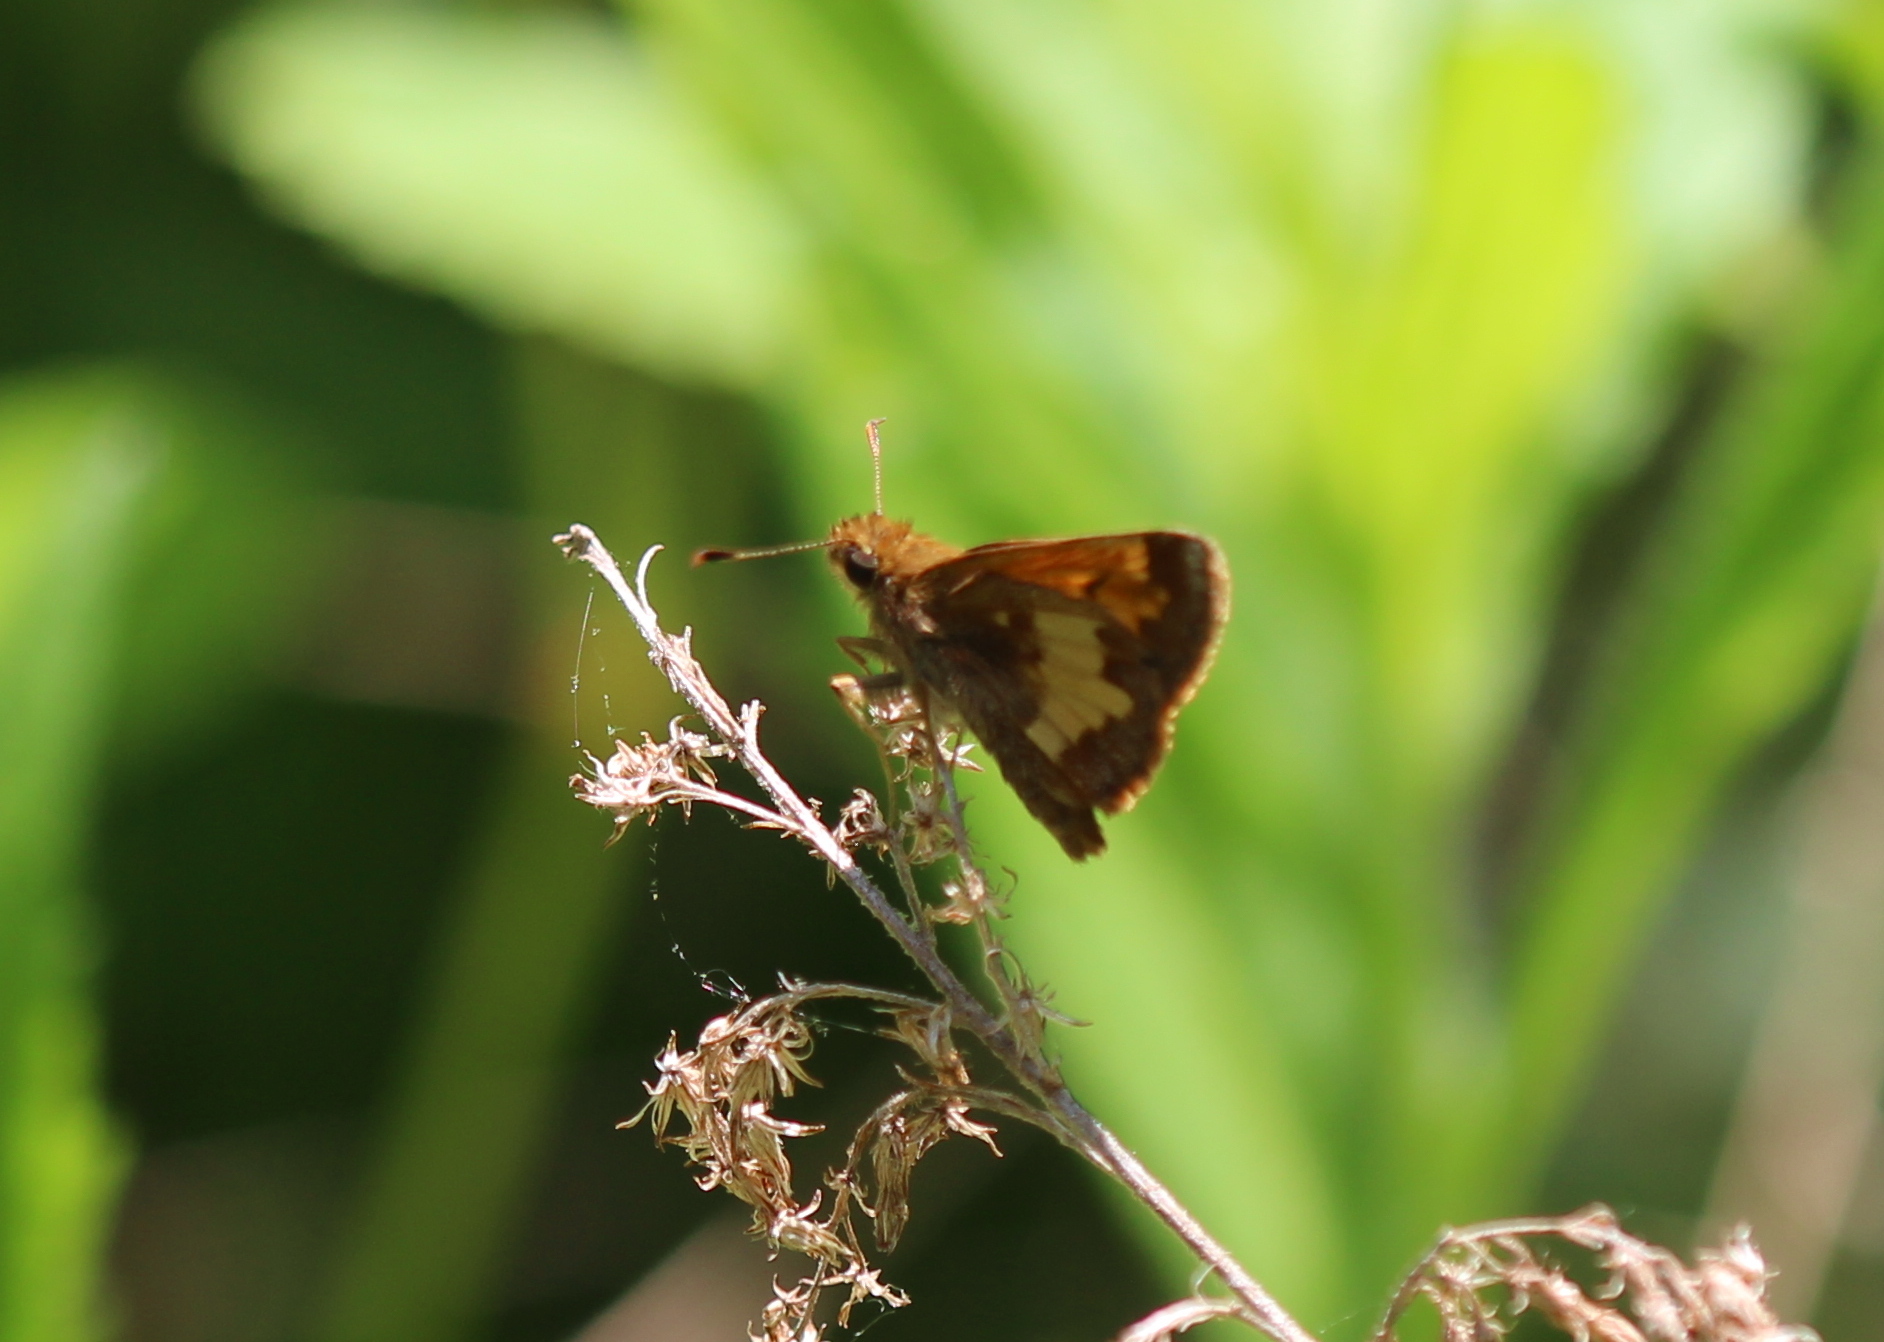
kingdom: Animalia
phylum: Arthropoda
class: Insecta
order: Lepidoptera
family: Hesperiidae
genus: Lon
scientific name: Lon hobomok
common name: Hobomok skipper
